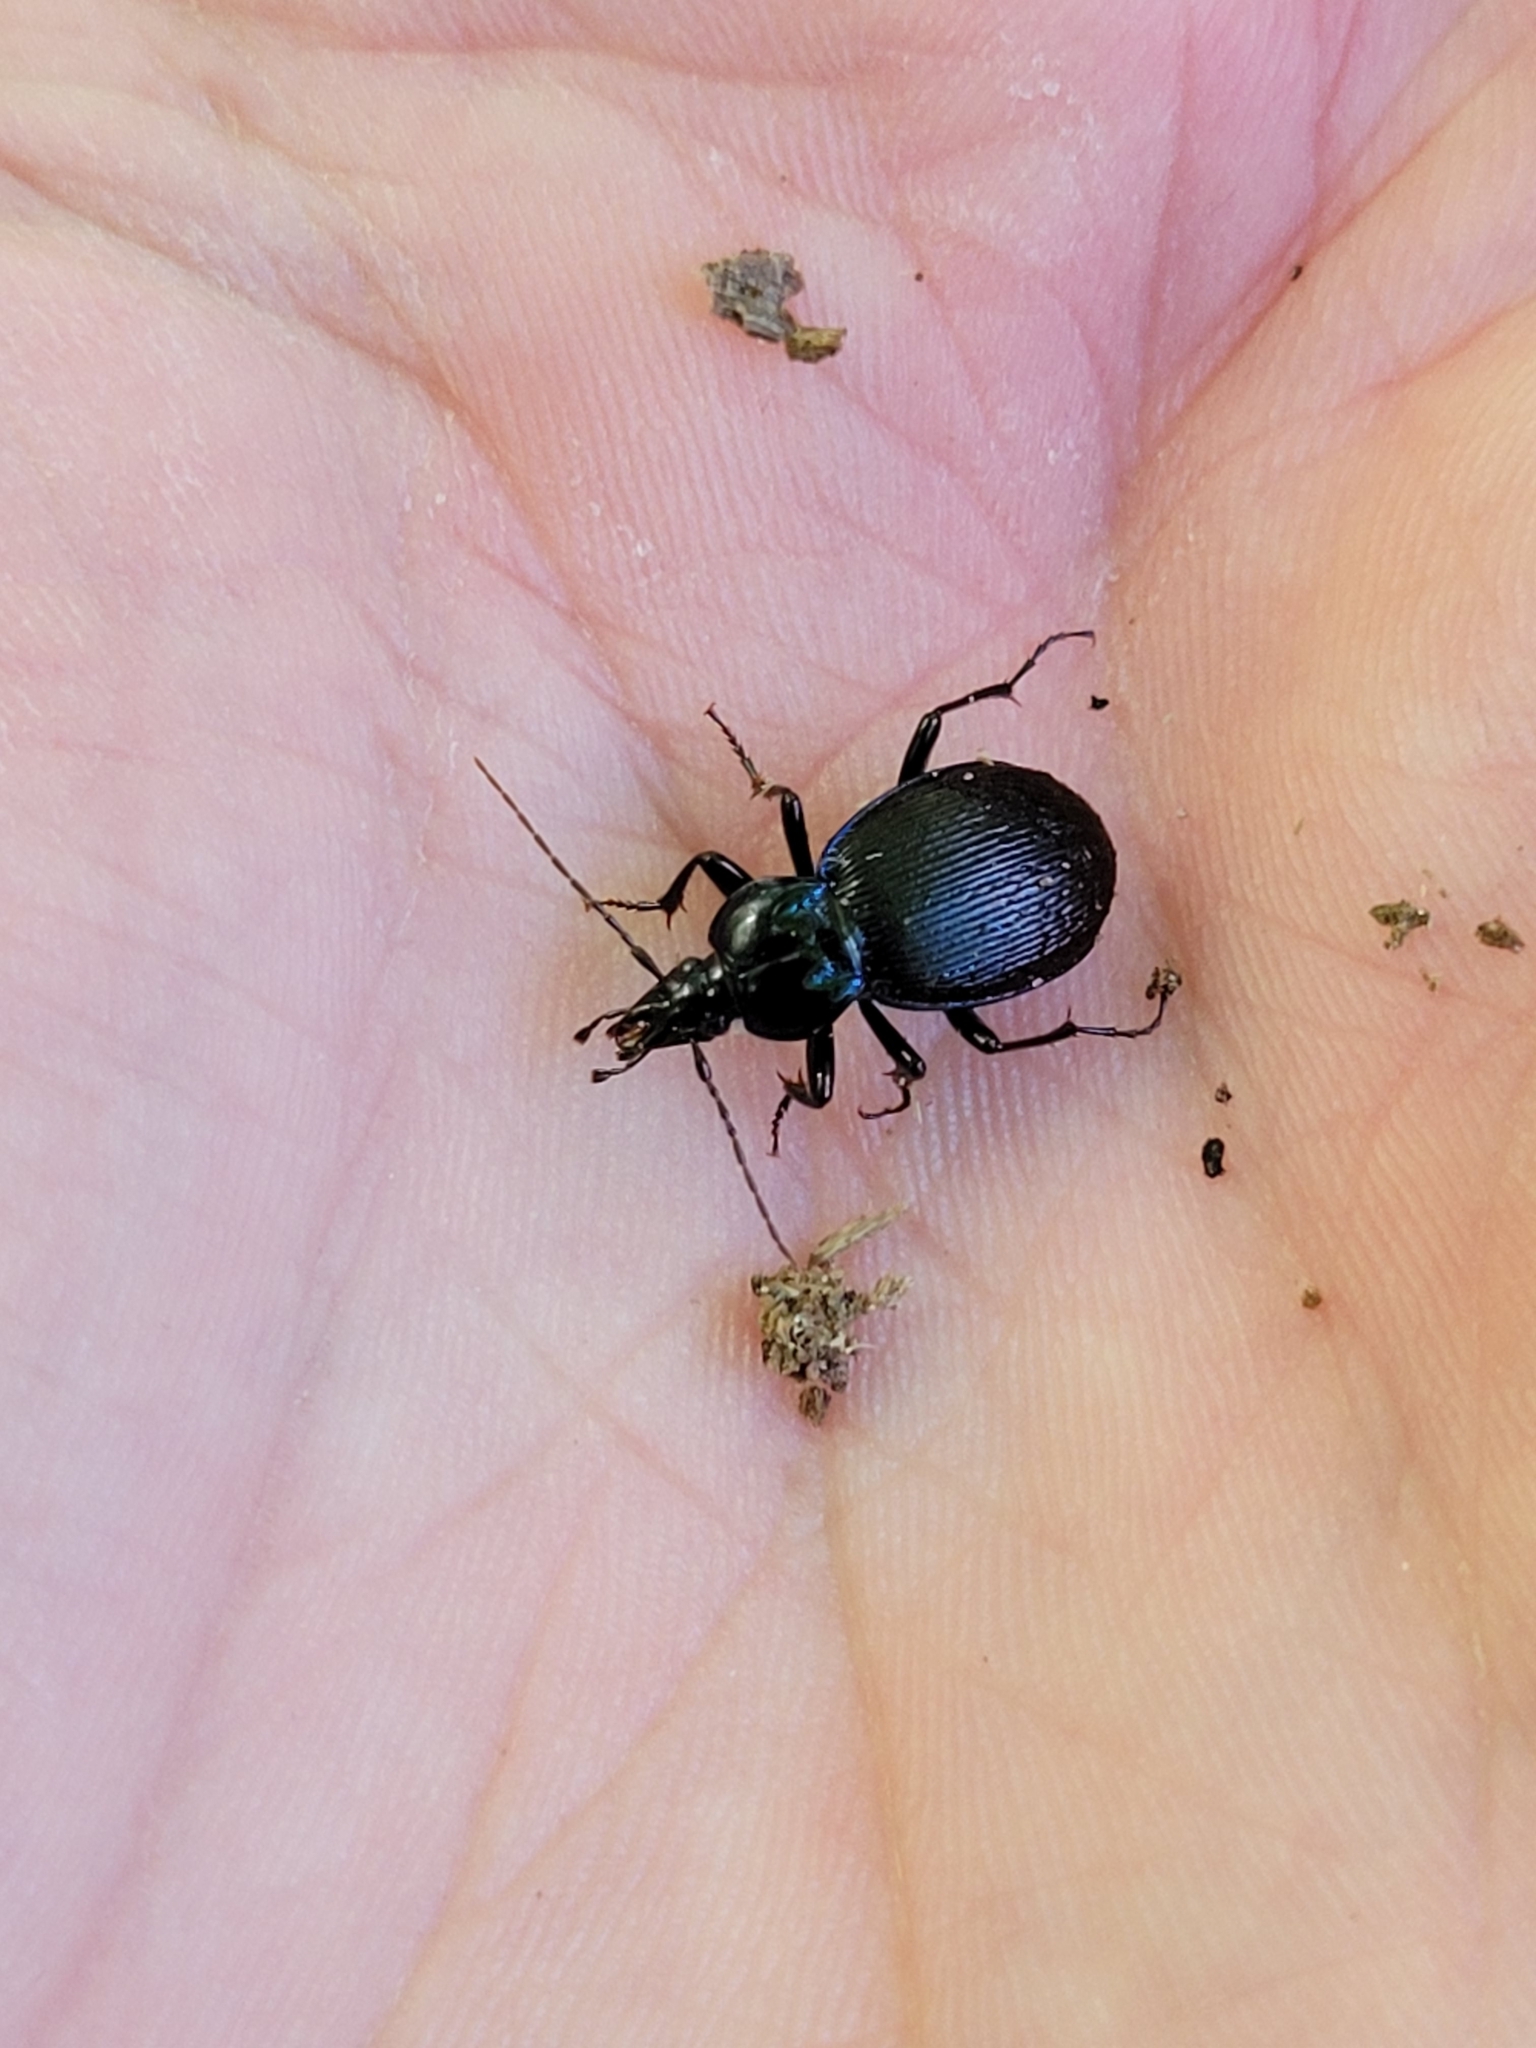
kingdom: Animalia
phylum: Arthropoda
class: Insecta
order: Coleoptera
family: Carabidae
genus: Sphaeroderus
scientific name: Sphaeroderus stenostomus
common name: Small snail-eating ground beetle
